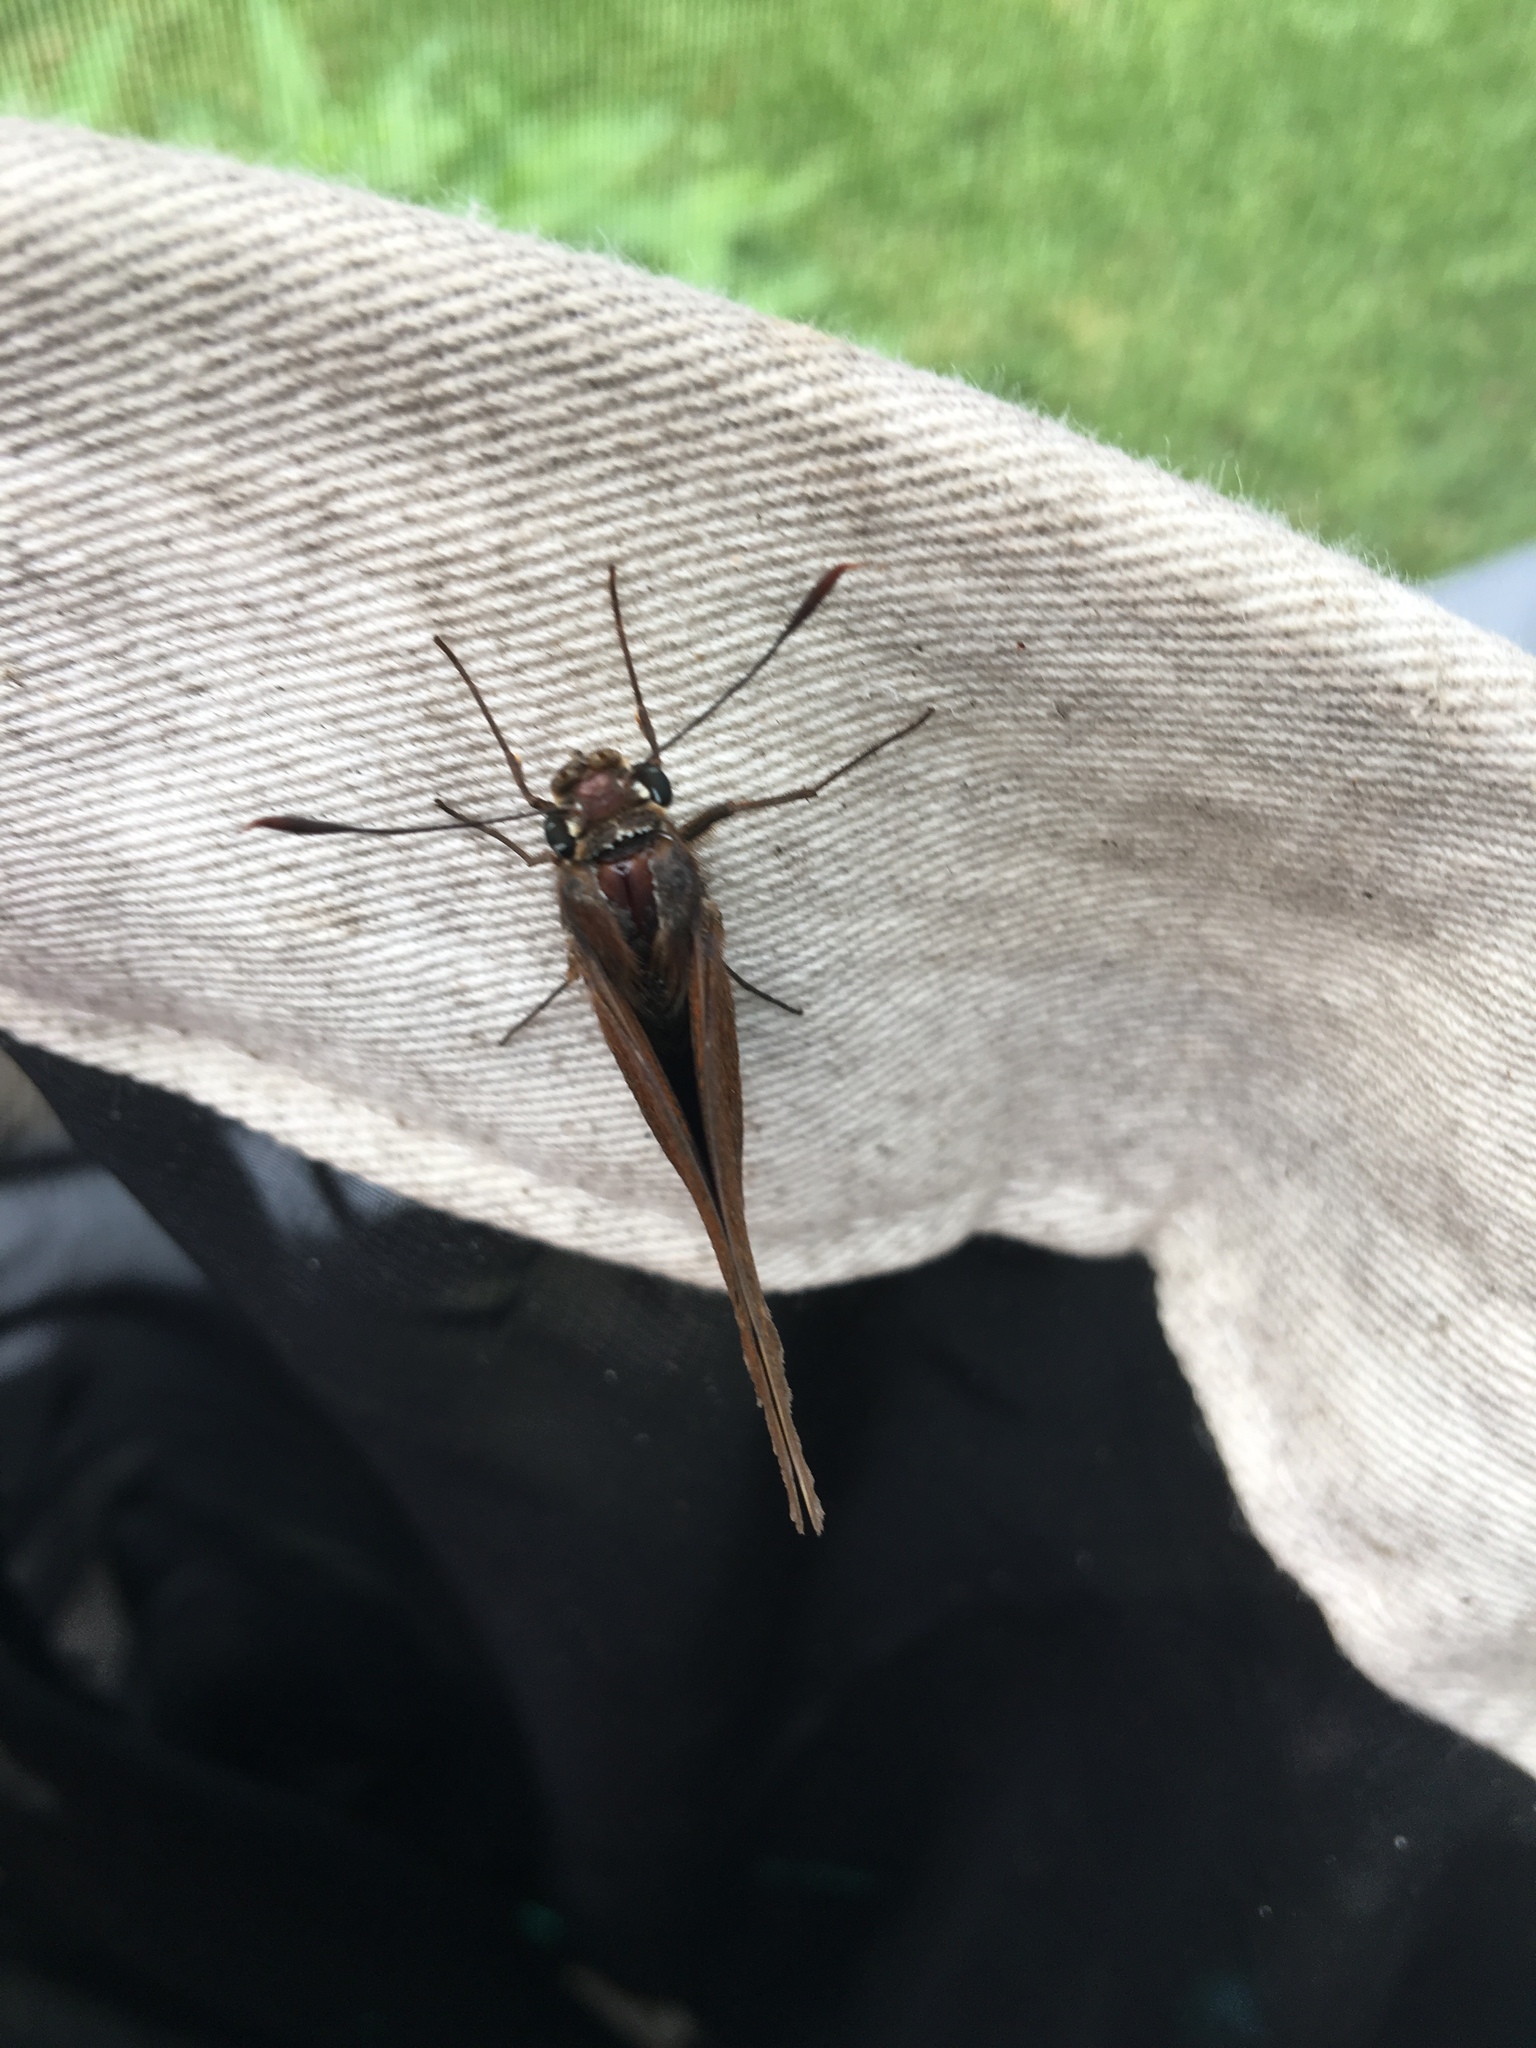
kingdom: Animalia
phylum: Arthropoda
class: Insecta
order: Lepidoptera
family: Hesperiidae
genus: Asbolis
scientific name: Asbolis capucinus
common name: Monk skipper
